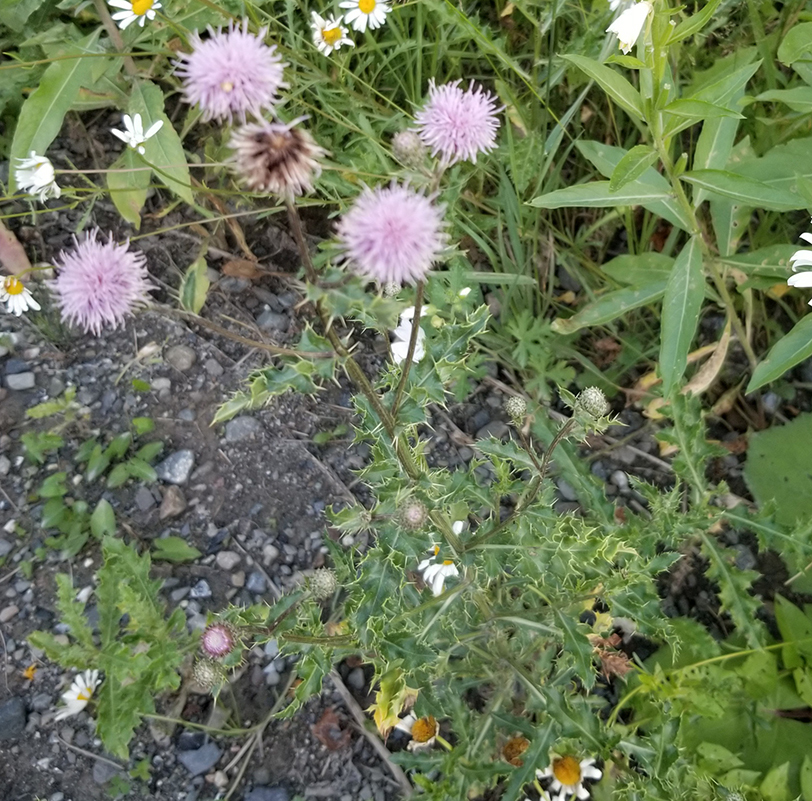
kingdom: Plantae
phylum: Tracheophyta
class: Magnoliopsida
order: Asterales
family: Asteraceae
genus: Cirsium
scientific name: Cirsium arvense
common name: Creeping thistle
